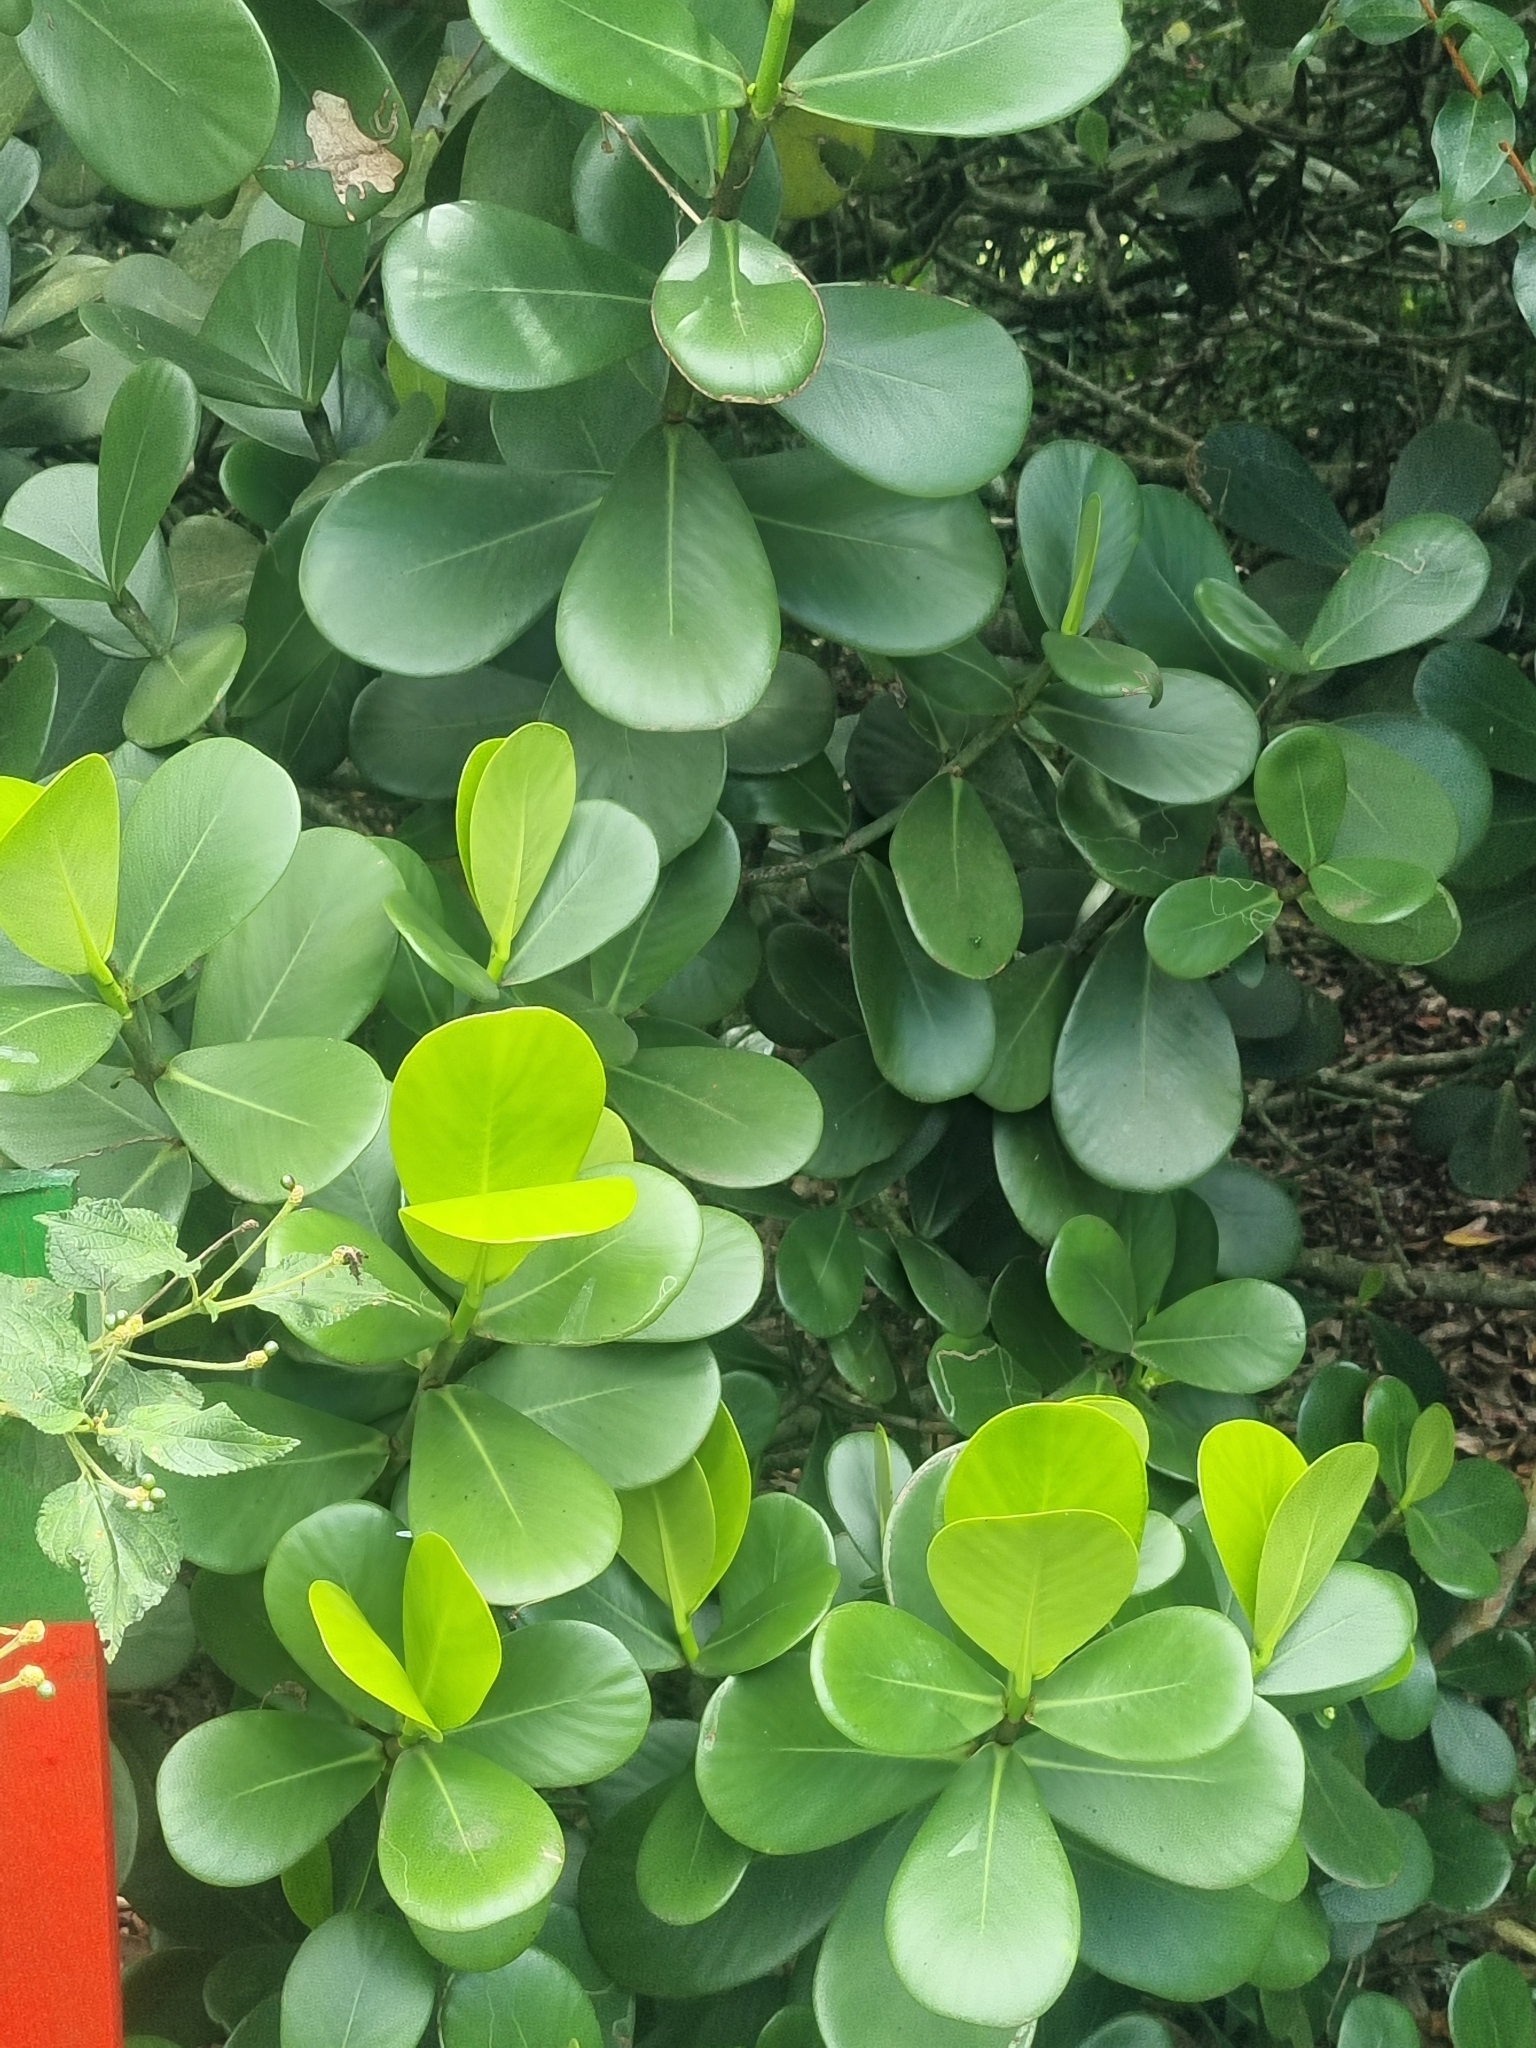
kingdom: Plantae
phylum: Tracheophyta
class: Magnoliopsida
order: Malpighiales
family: Clusiaceae
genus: Clusia
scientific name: Clusia fluminensis
